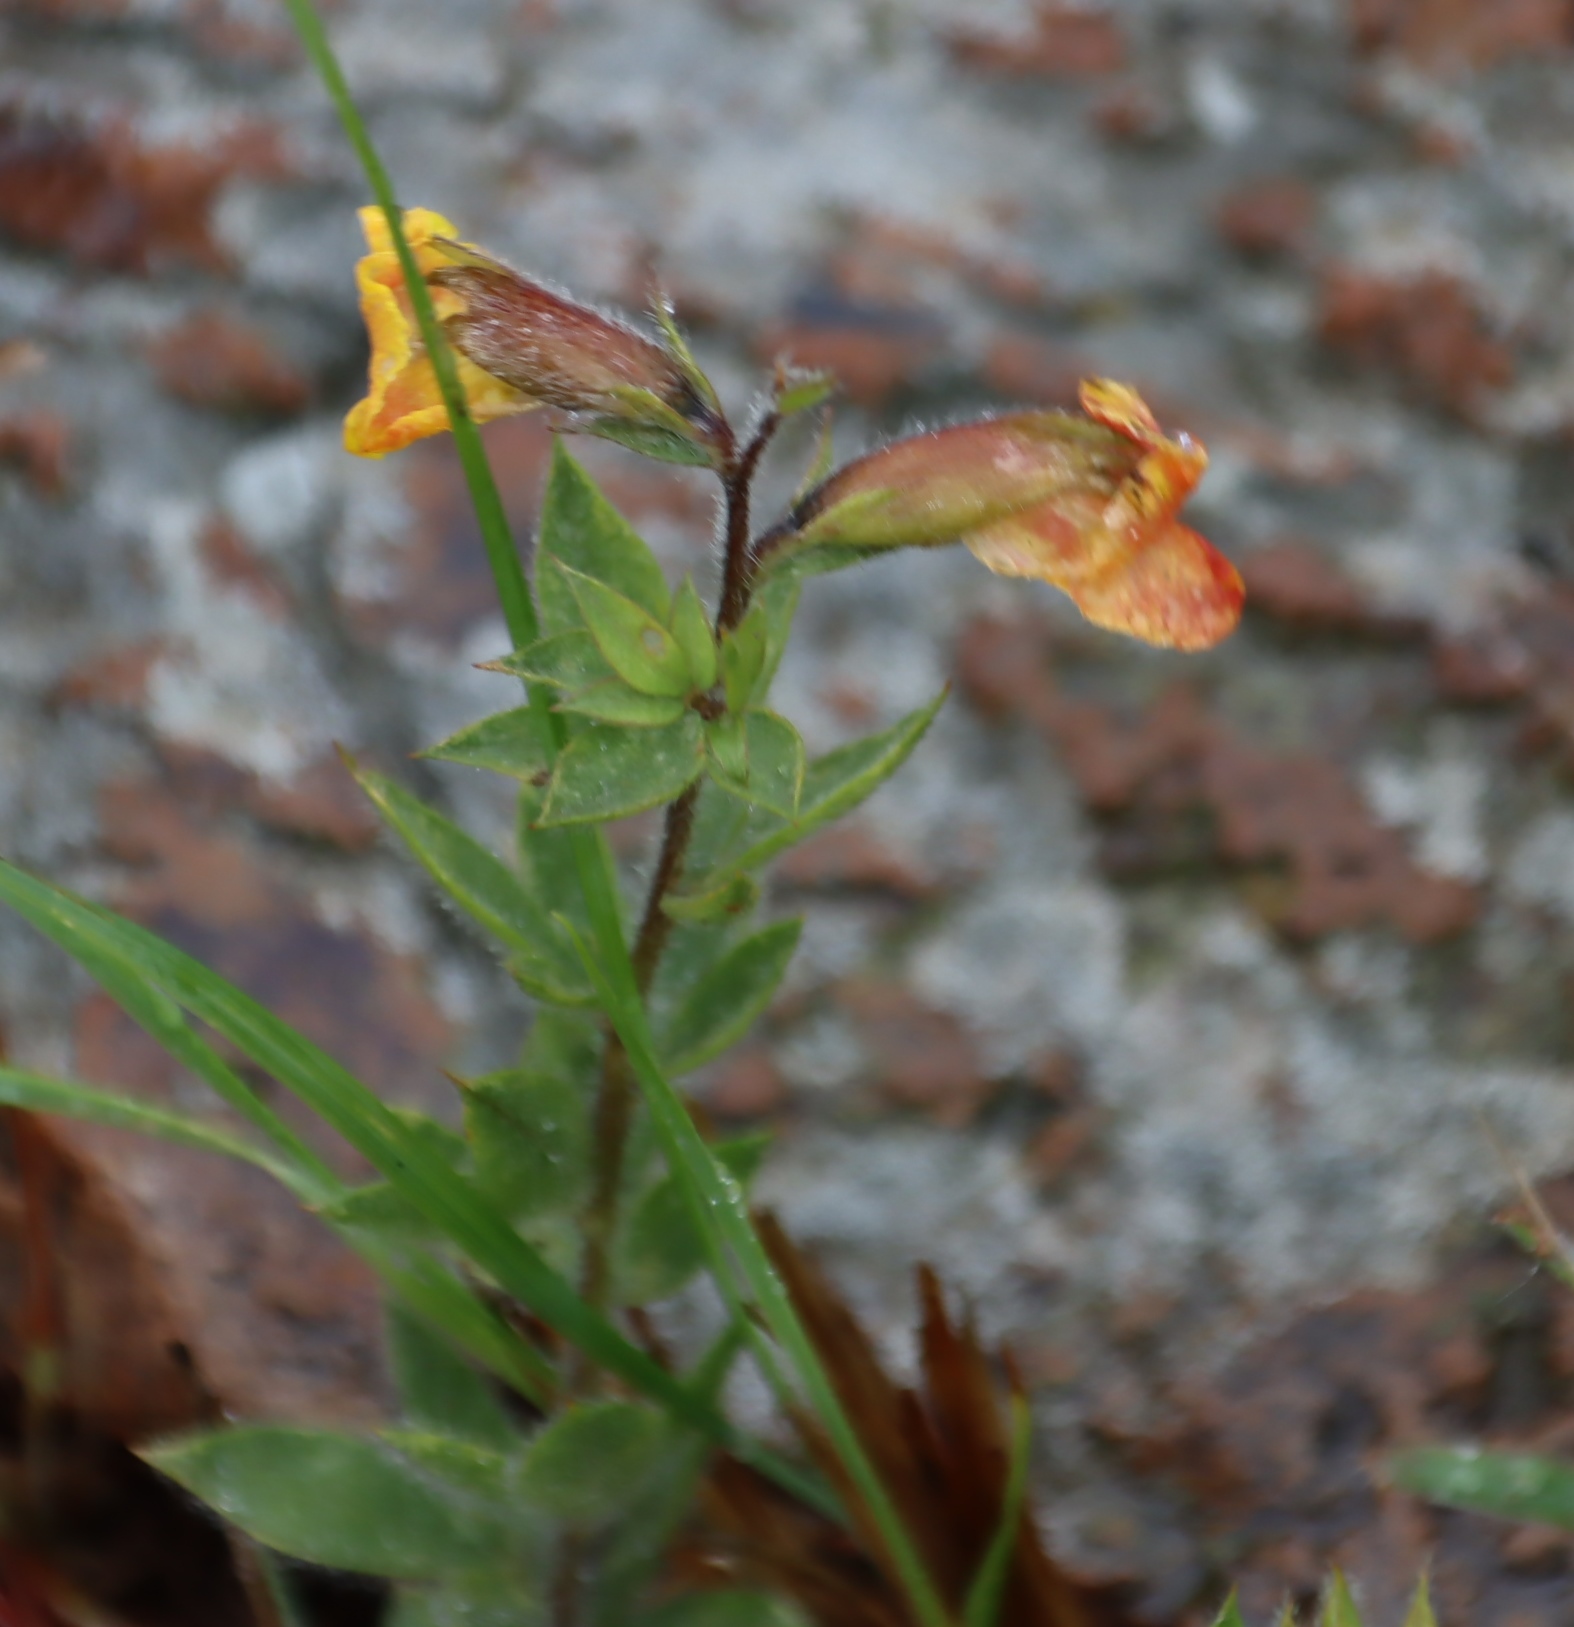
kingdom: Plantae
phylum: Tracheophyta
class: Magnoliopsida
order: Fabales
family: Fabaceae
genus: Pearsonia
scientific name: Pearsonia aristata
